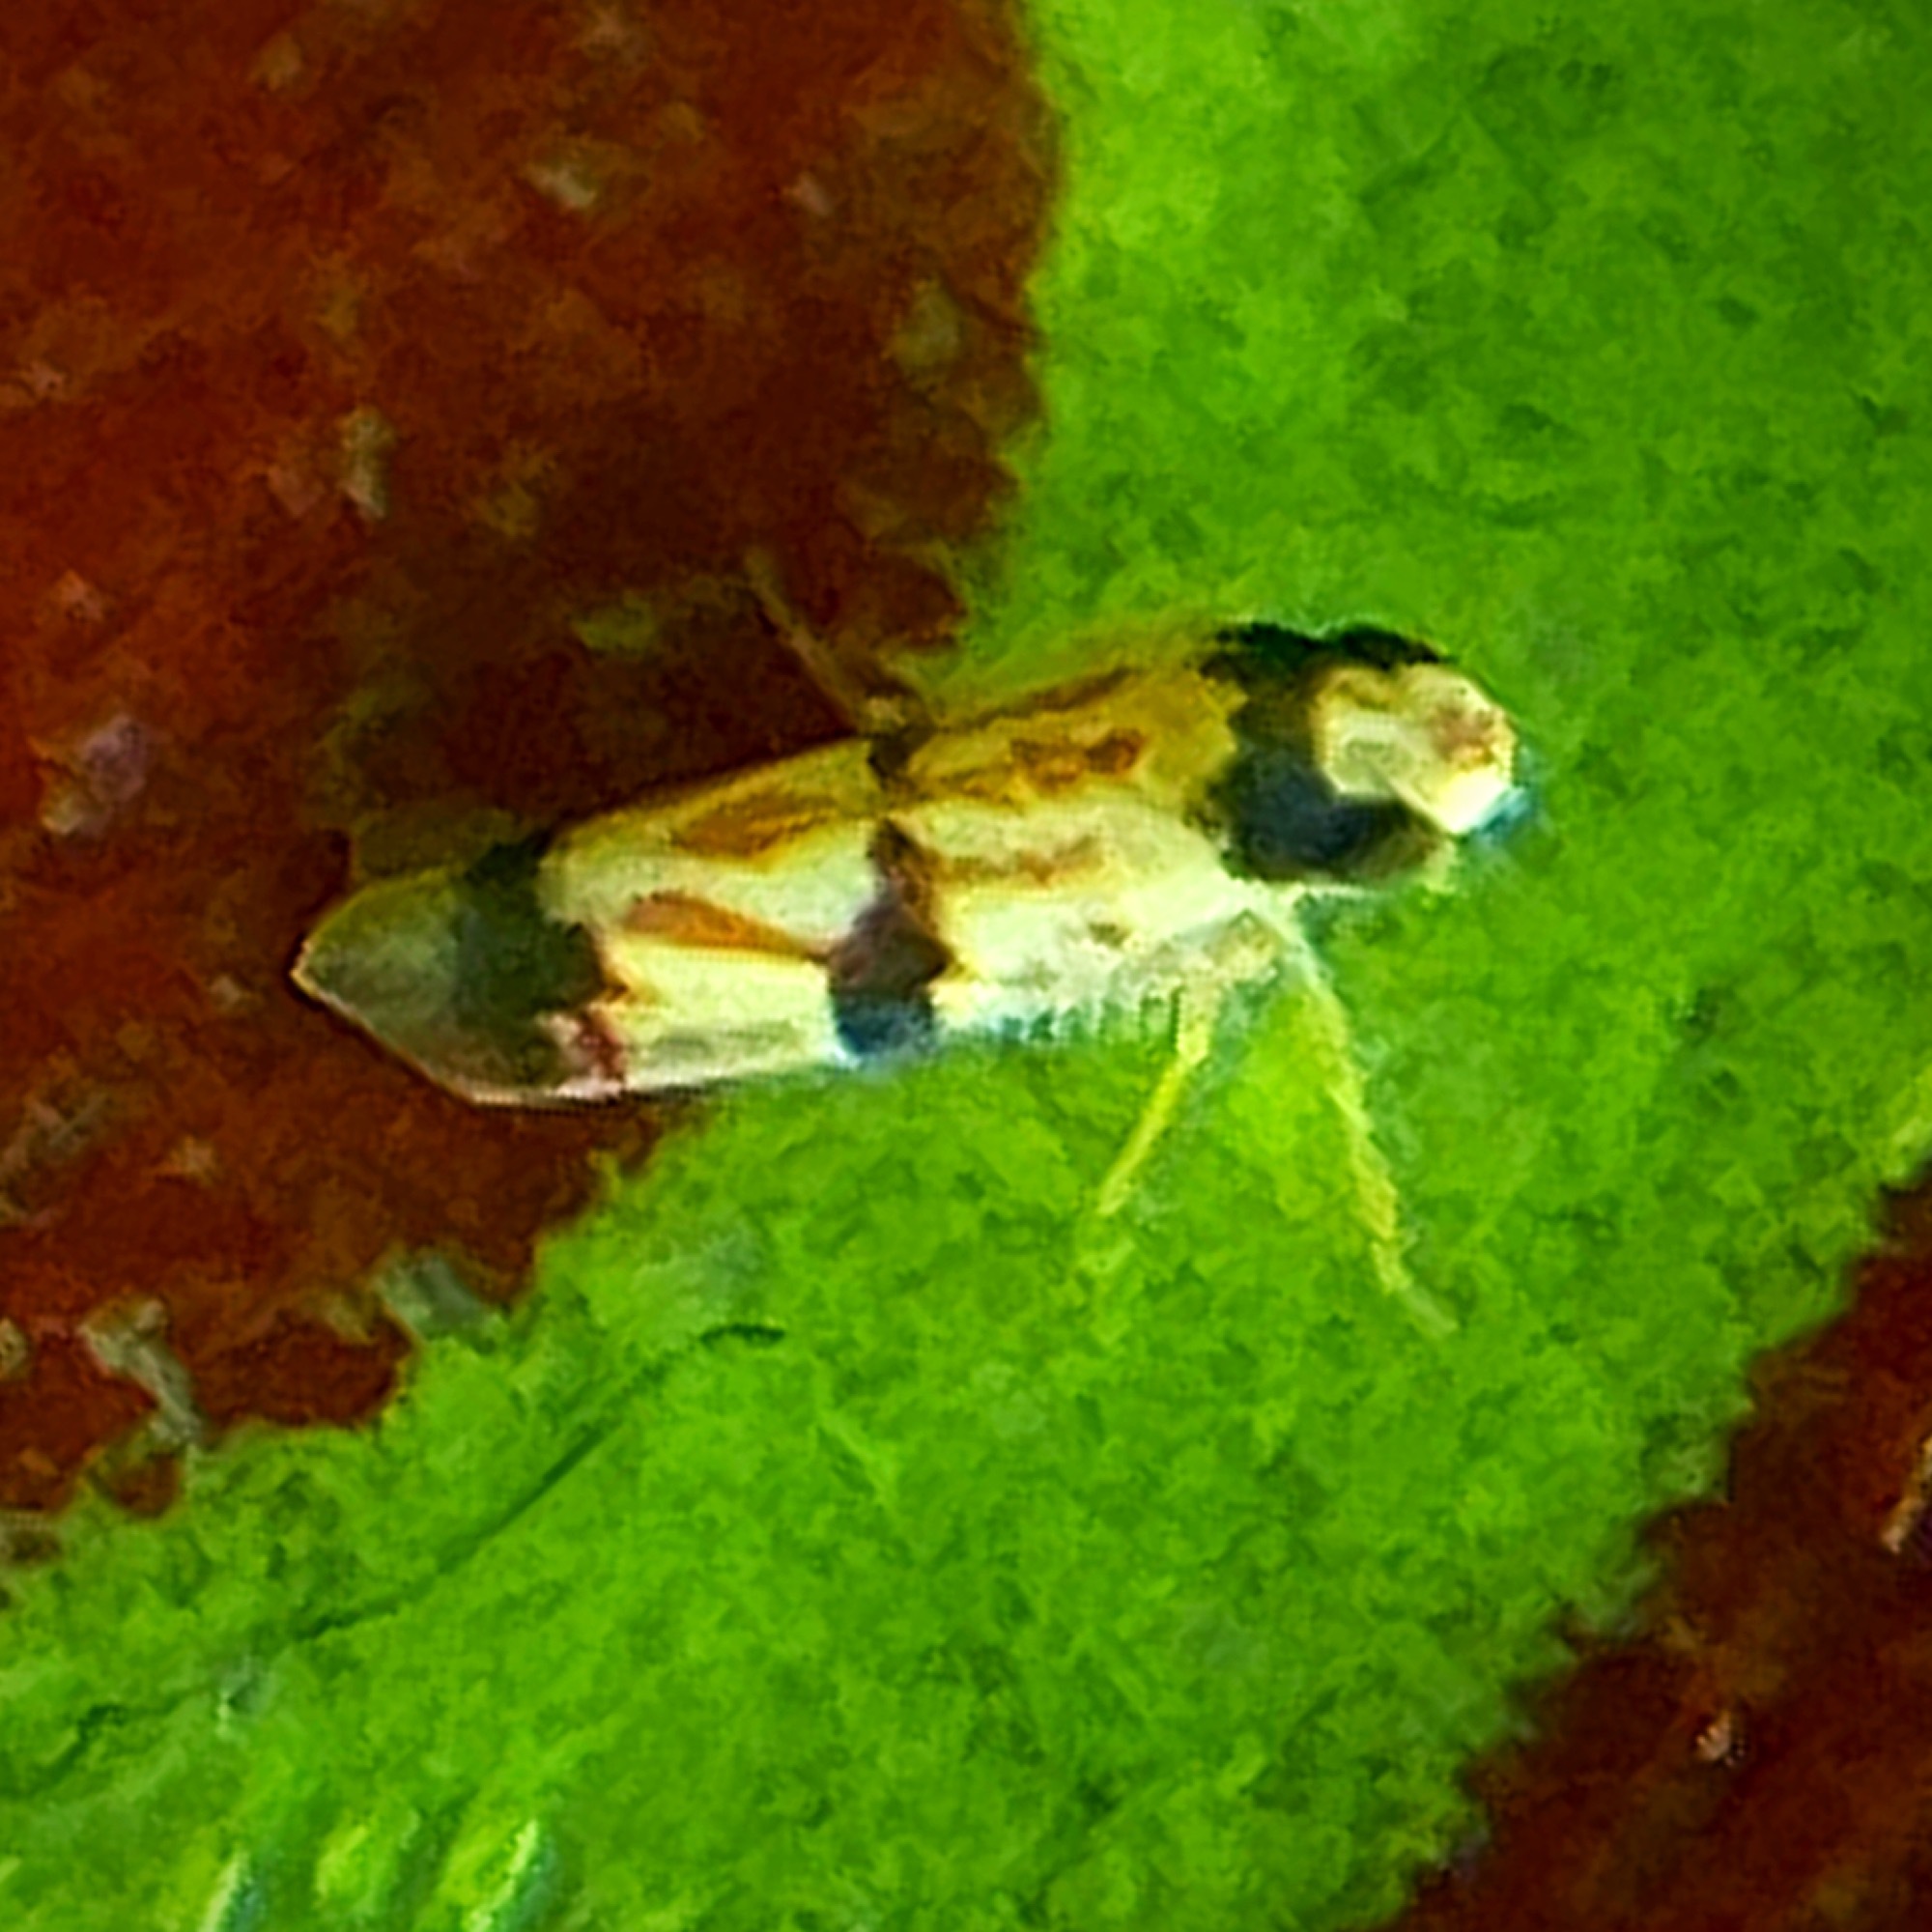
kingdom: Animalia
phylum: Arthropoda
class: Insecta
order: Hemiptera
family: Cicadellidae
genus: Erythroneura
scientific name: Erythroneura calycula
